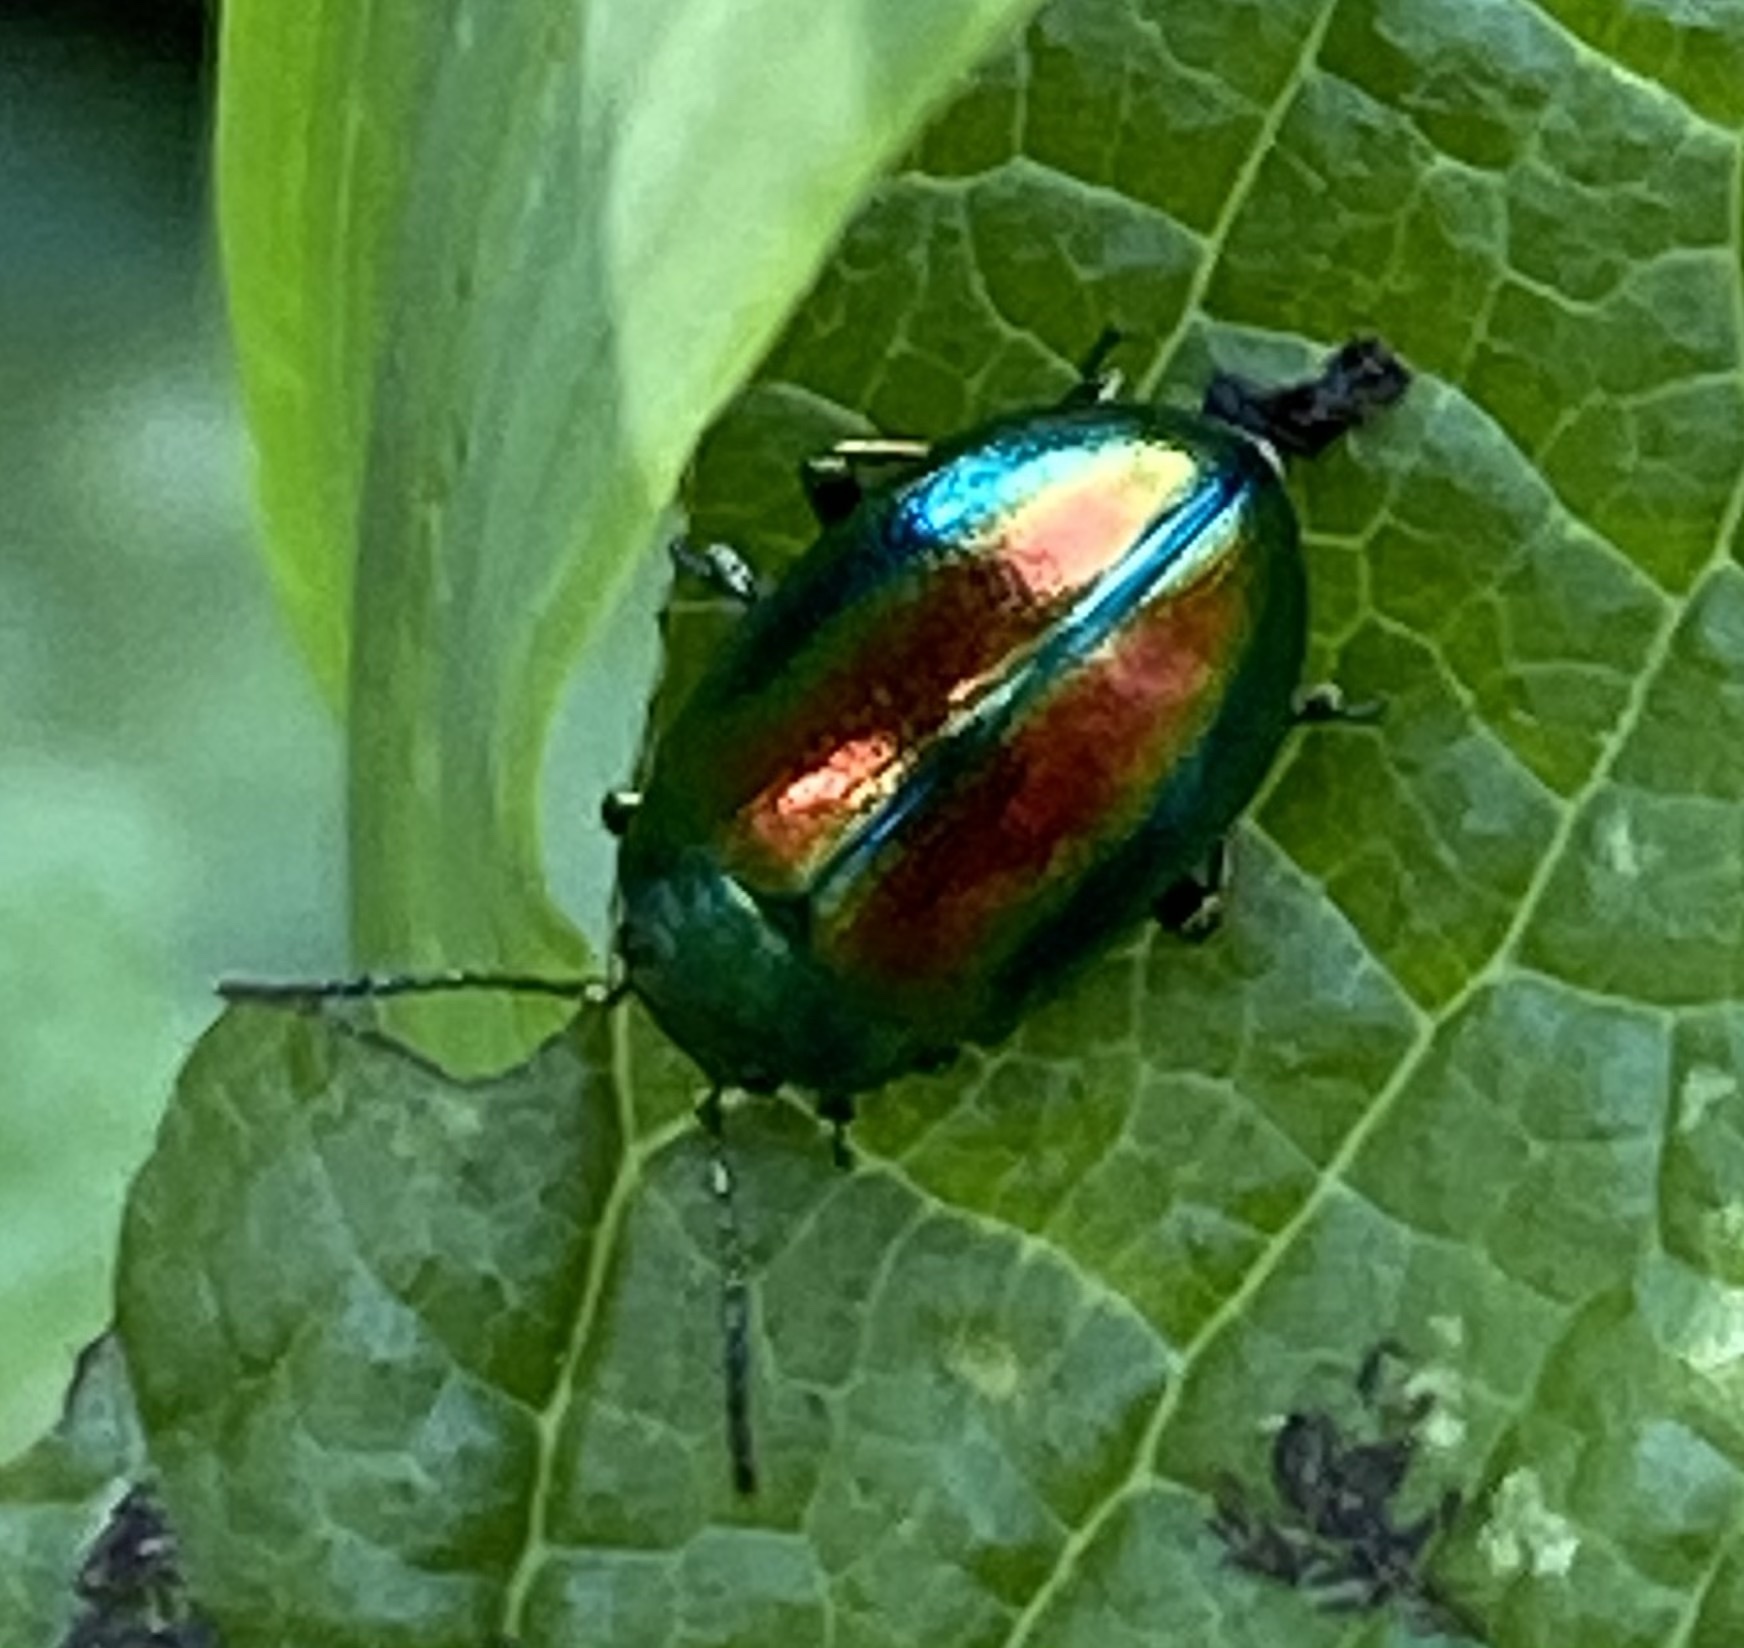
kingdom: Animalia
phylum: Arthropoda
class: Insecta
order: Coleoptera
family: Chrysomelidae
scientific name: Chrysomelidae
